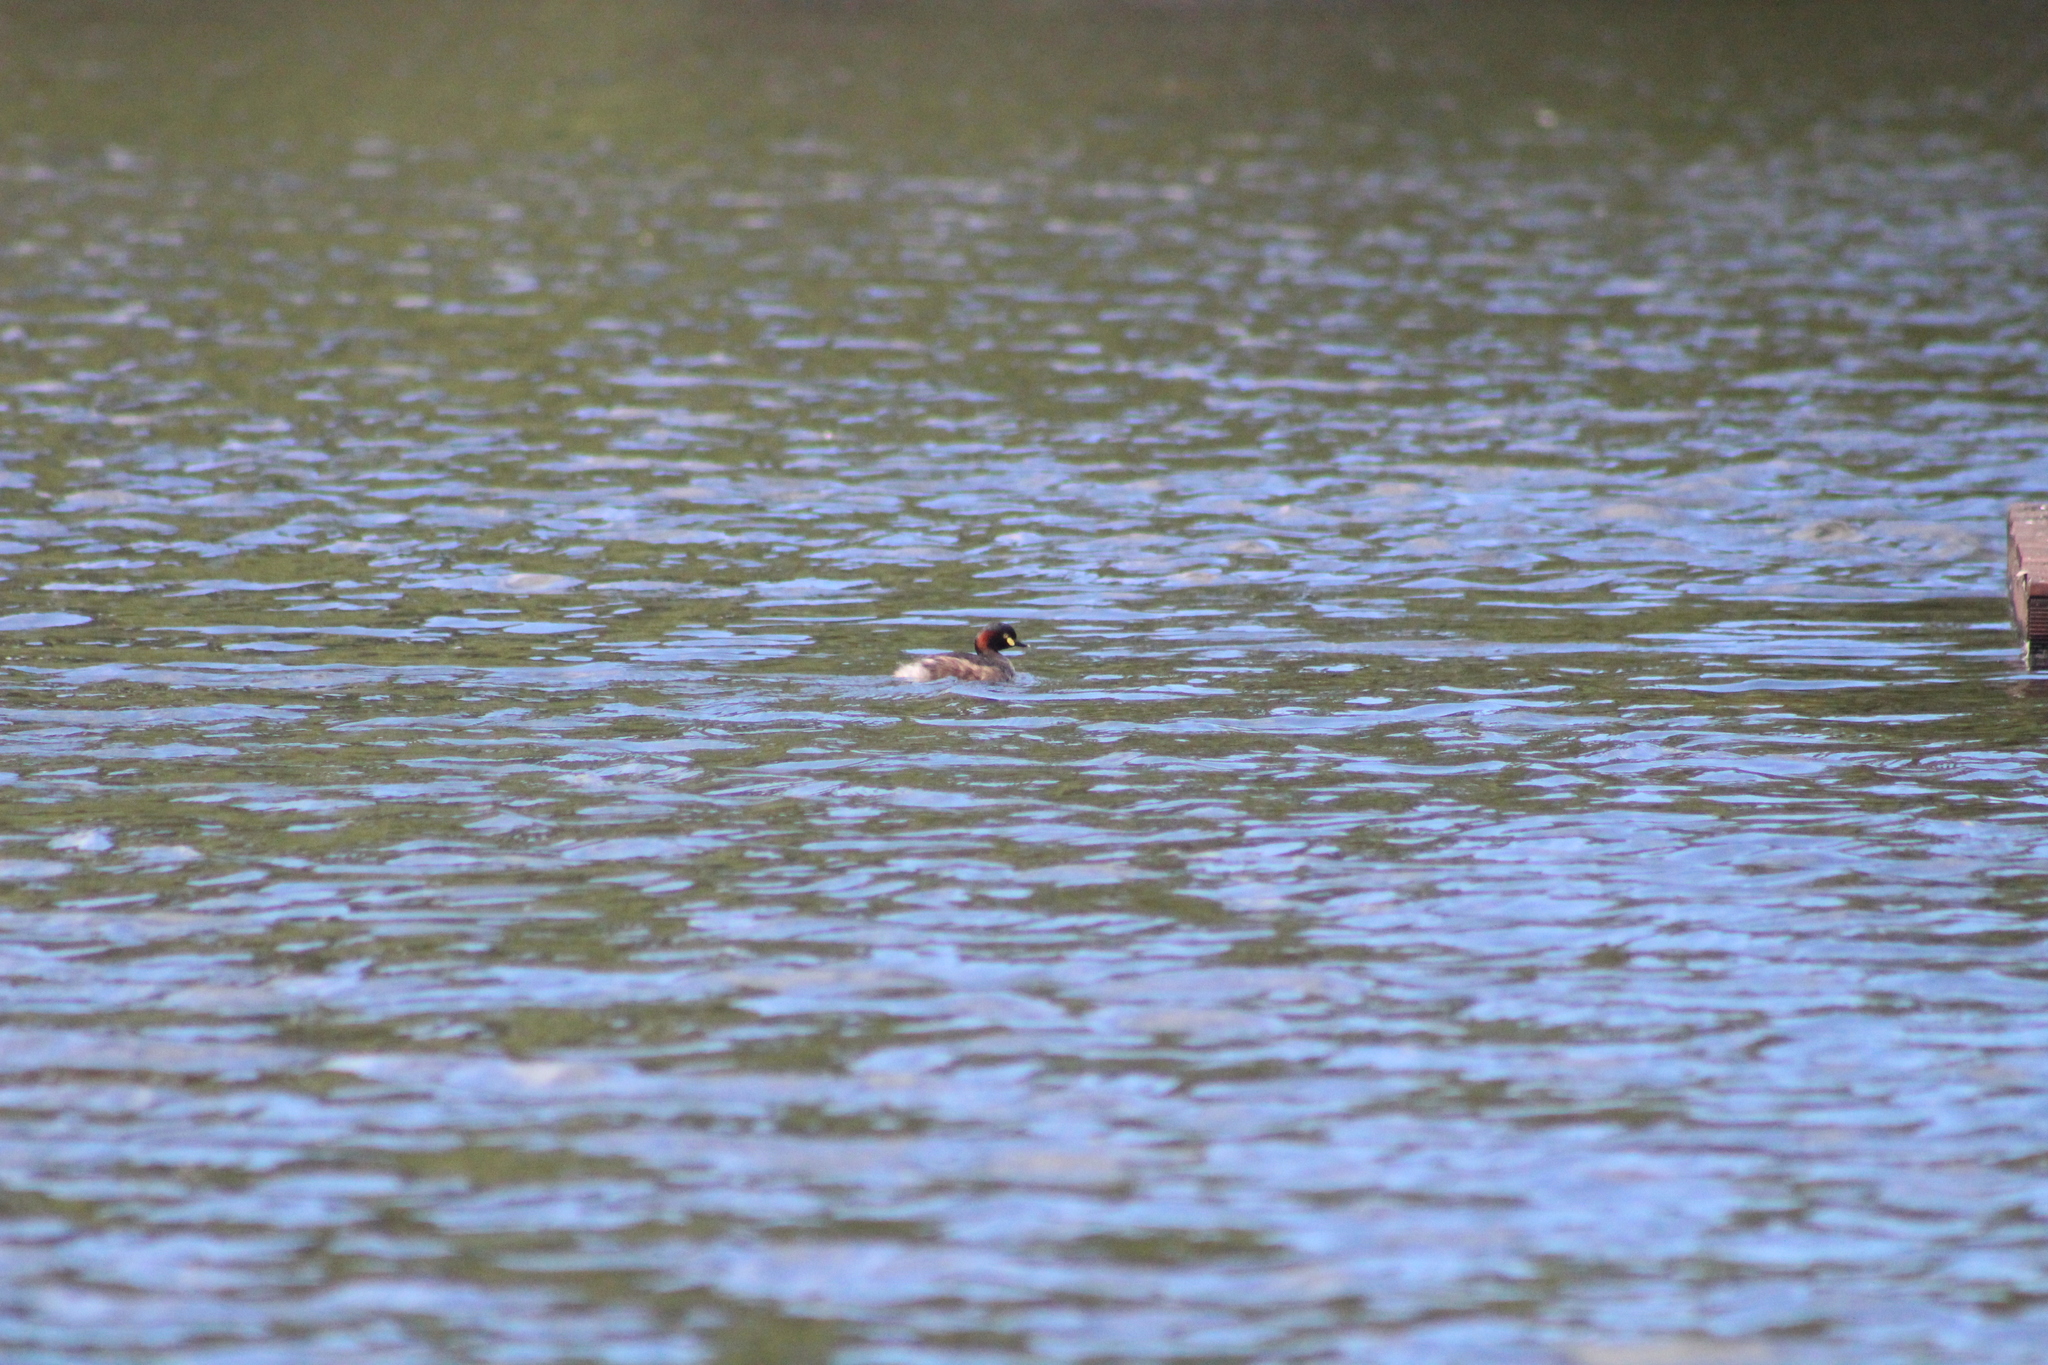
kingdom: Animalia
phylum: Chordata
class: Aves
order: Podicipediformes
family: Podicipedidae
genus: Tachybaptus
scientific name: Tachybaptus novaehollandiae
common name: Australasian grebe
